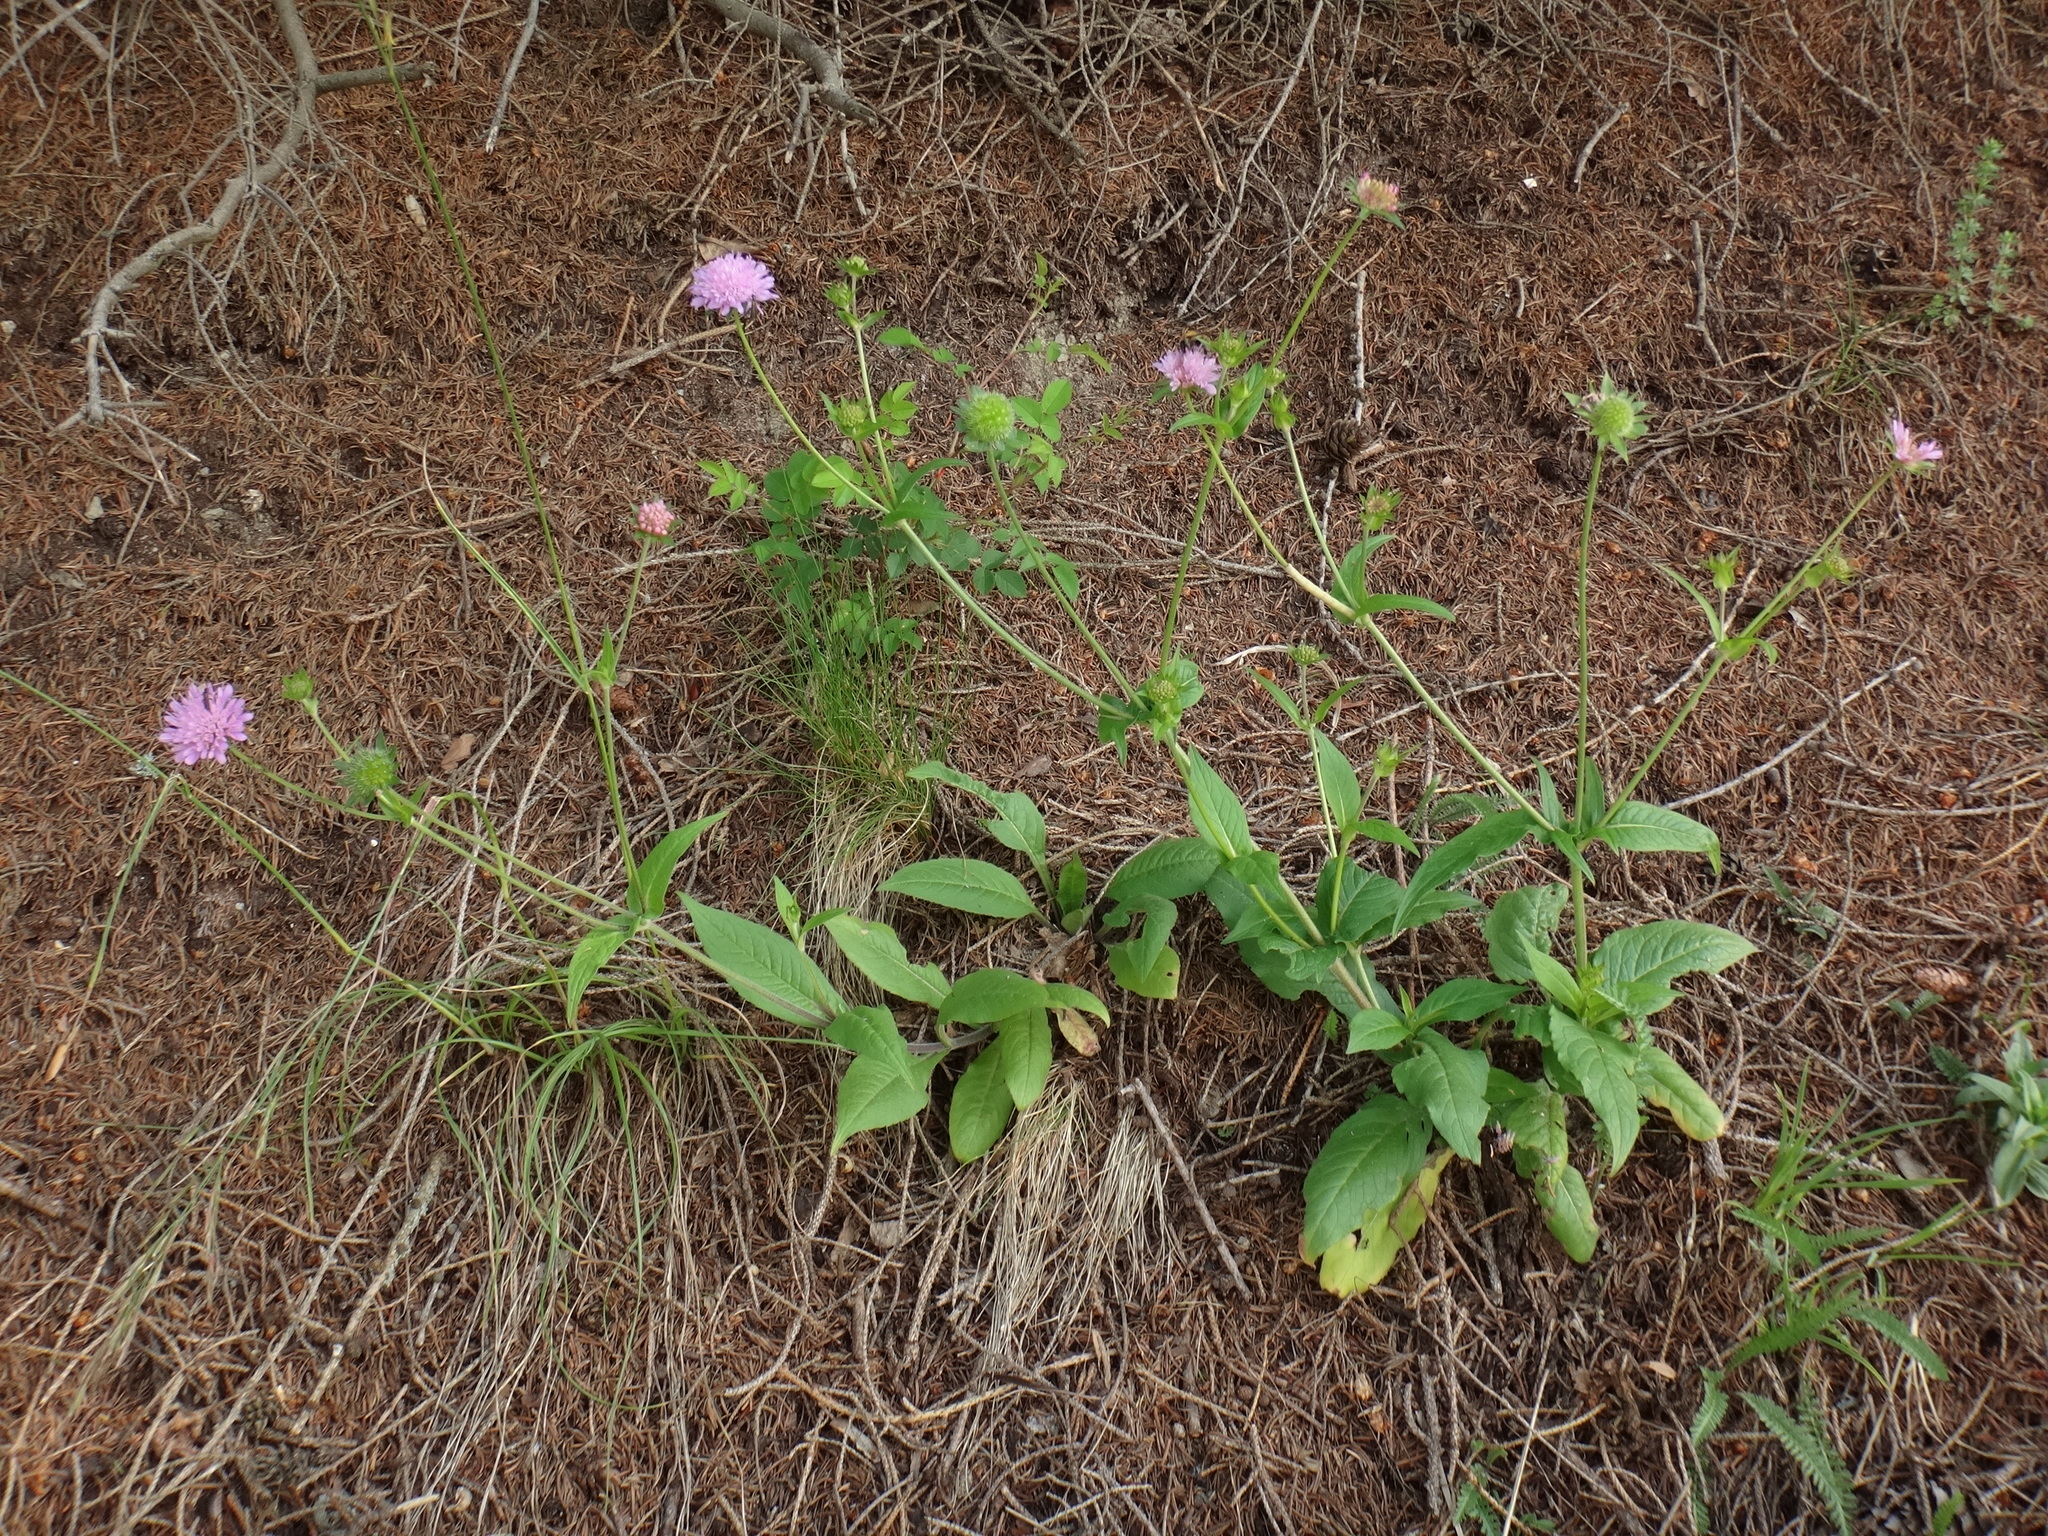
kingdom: Plantae
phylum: Tracheophyta
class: Magnoliopsida
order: Dipsacales
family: Caprifoliaceae
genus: Knautia
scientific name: Knautia drymeia
